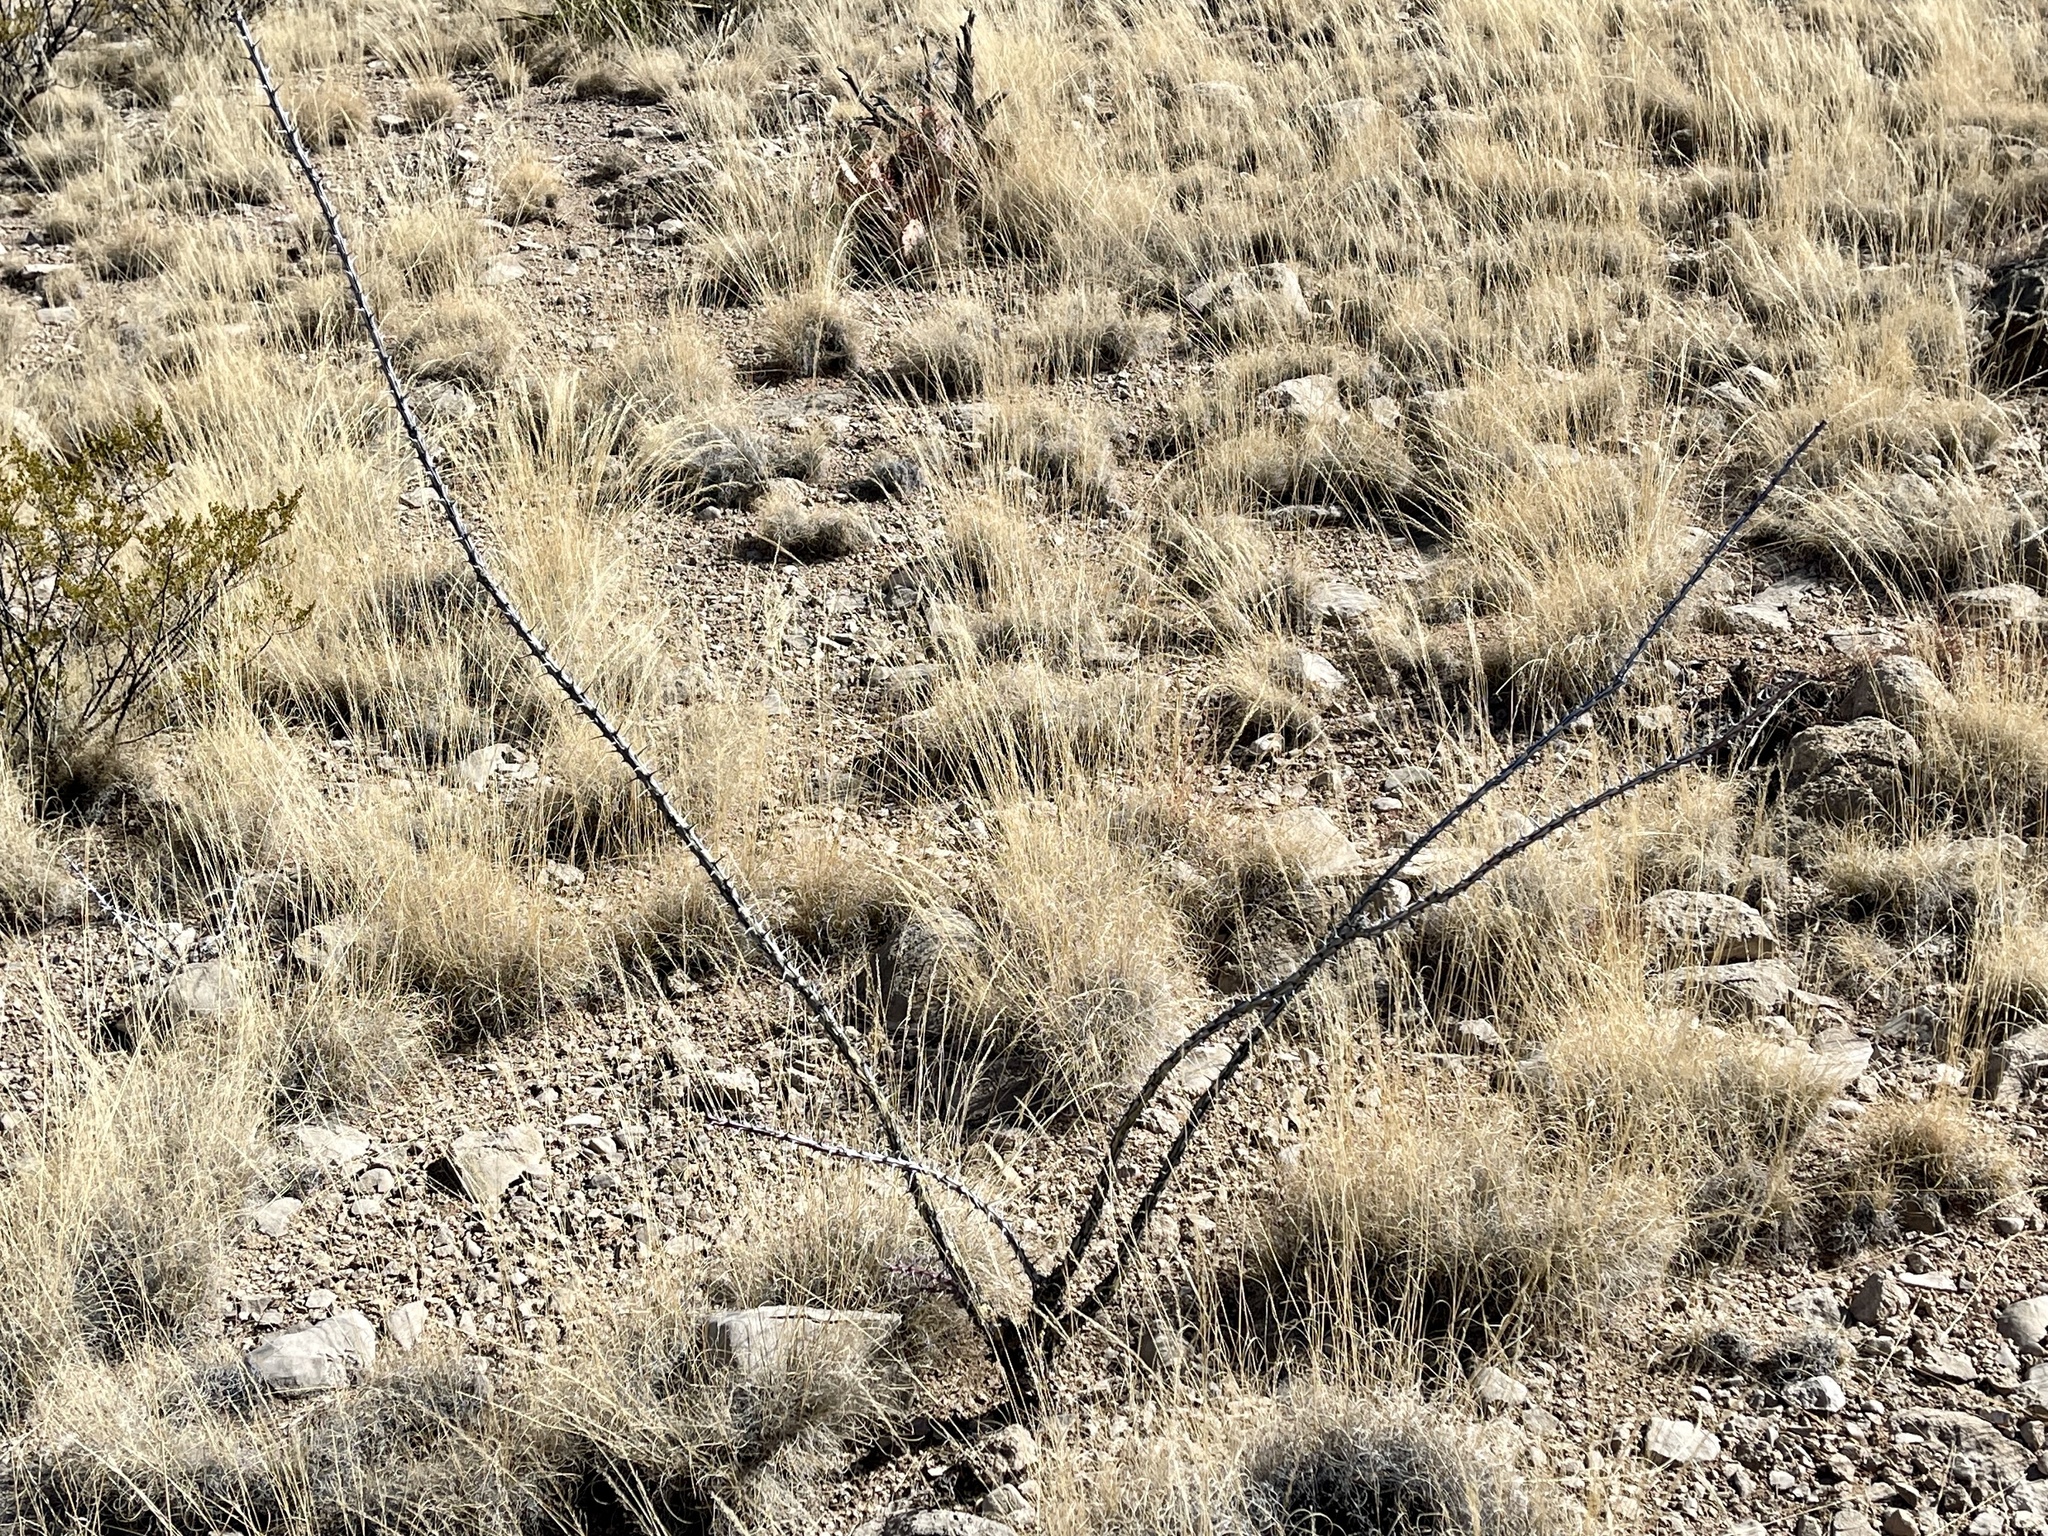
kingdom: Plantae
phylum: Tracheophyta
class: Magnoliopsida
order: Ericales
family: Fouquieriaceae
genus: Fouquieria
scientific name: Fouquieria splendens
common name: Vine-cactus
